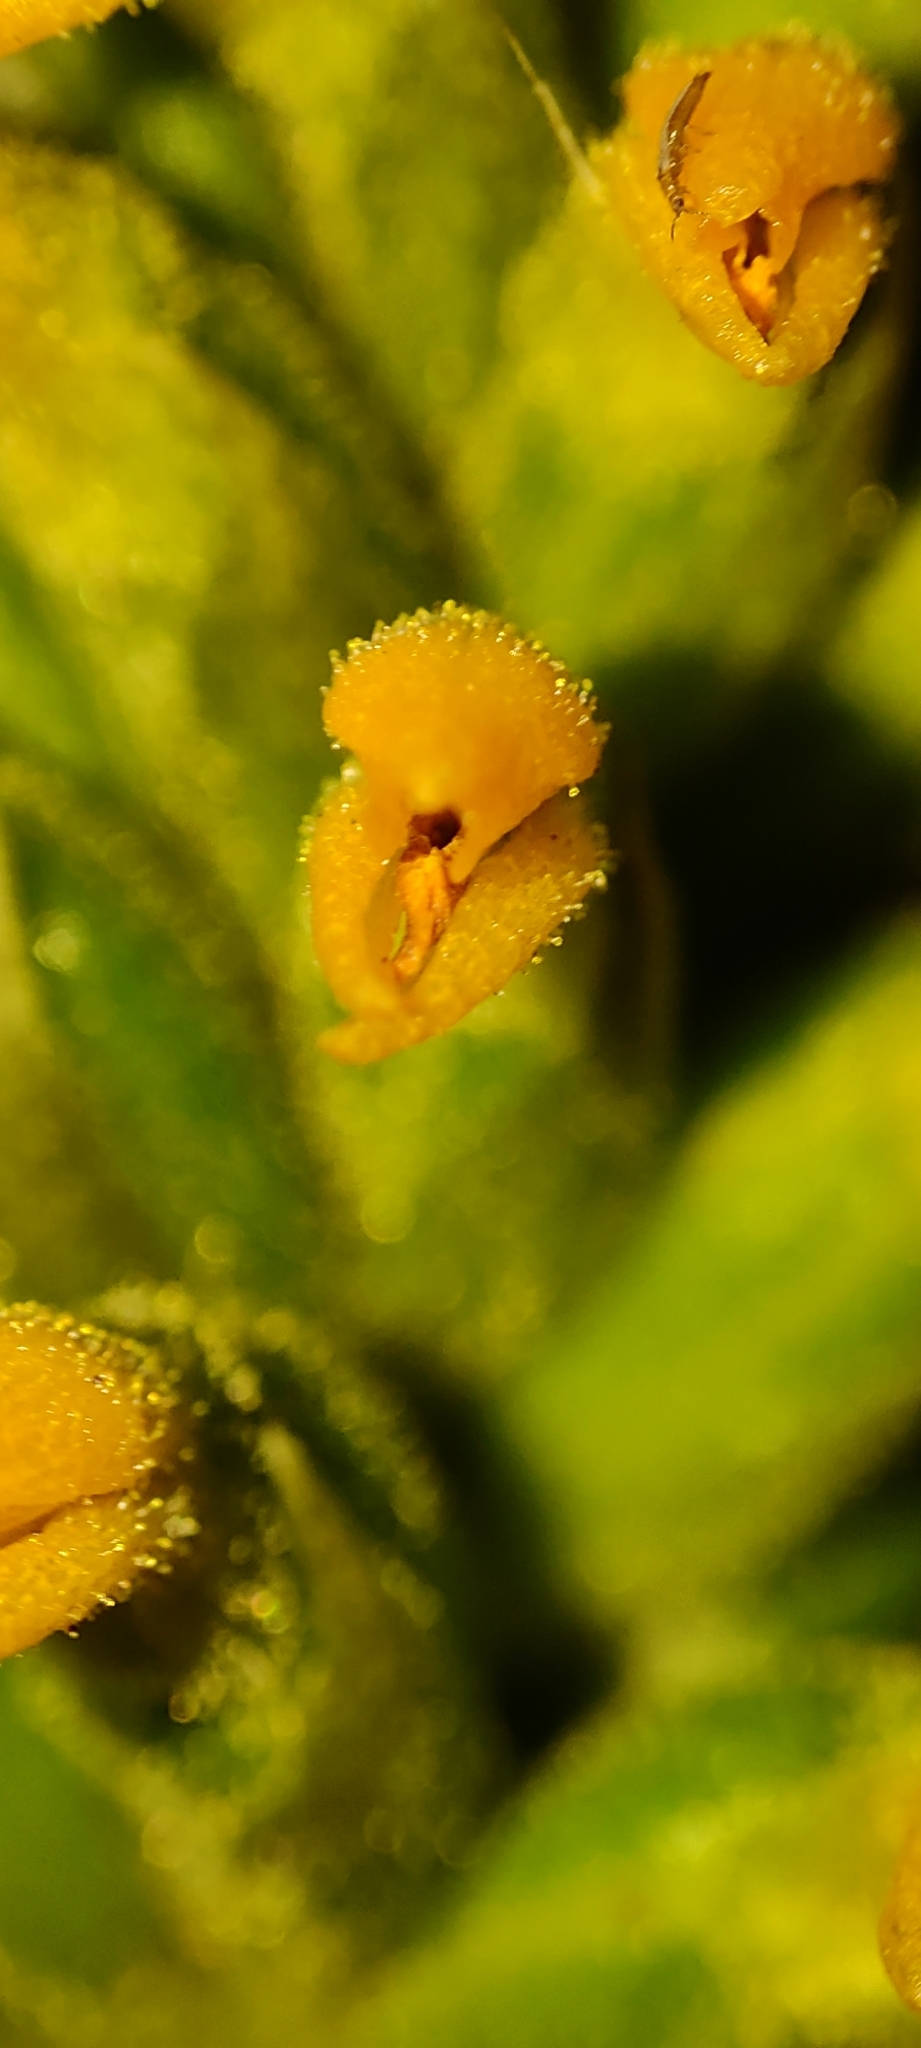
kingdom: Plantae
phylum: Tracheophyta
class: Liliopsida
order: Asparagales
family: Orchidaceae
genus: Sauroglossum
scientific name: Sauroglossum schweinfurthianum
